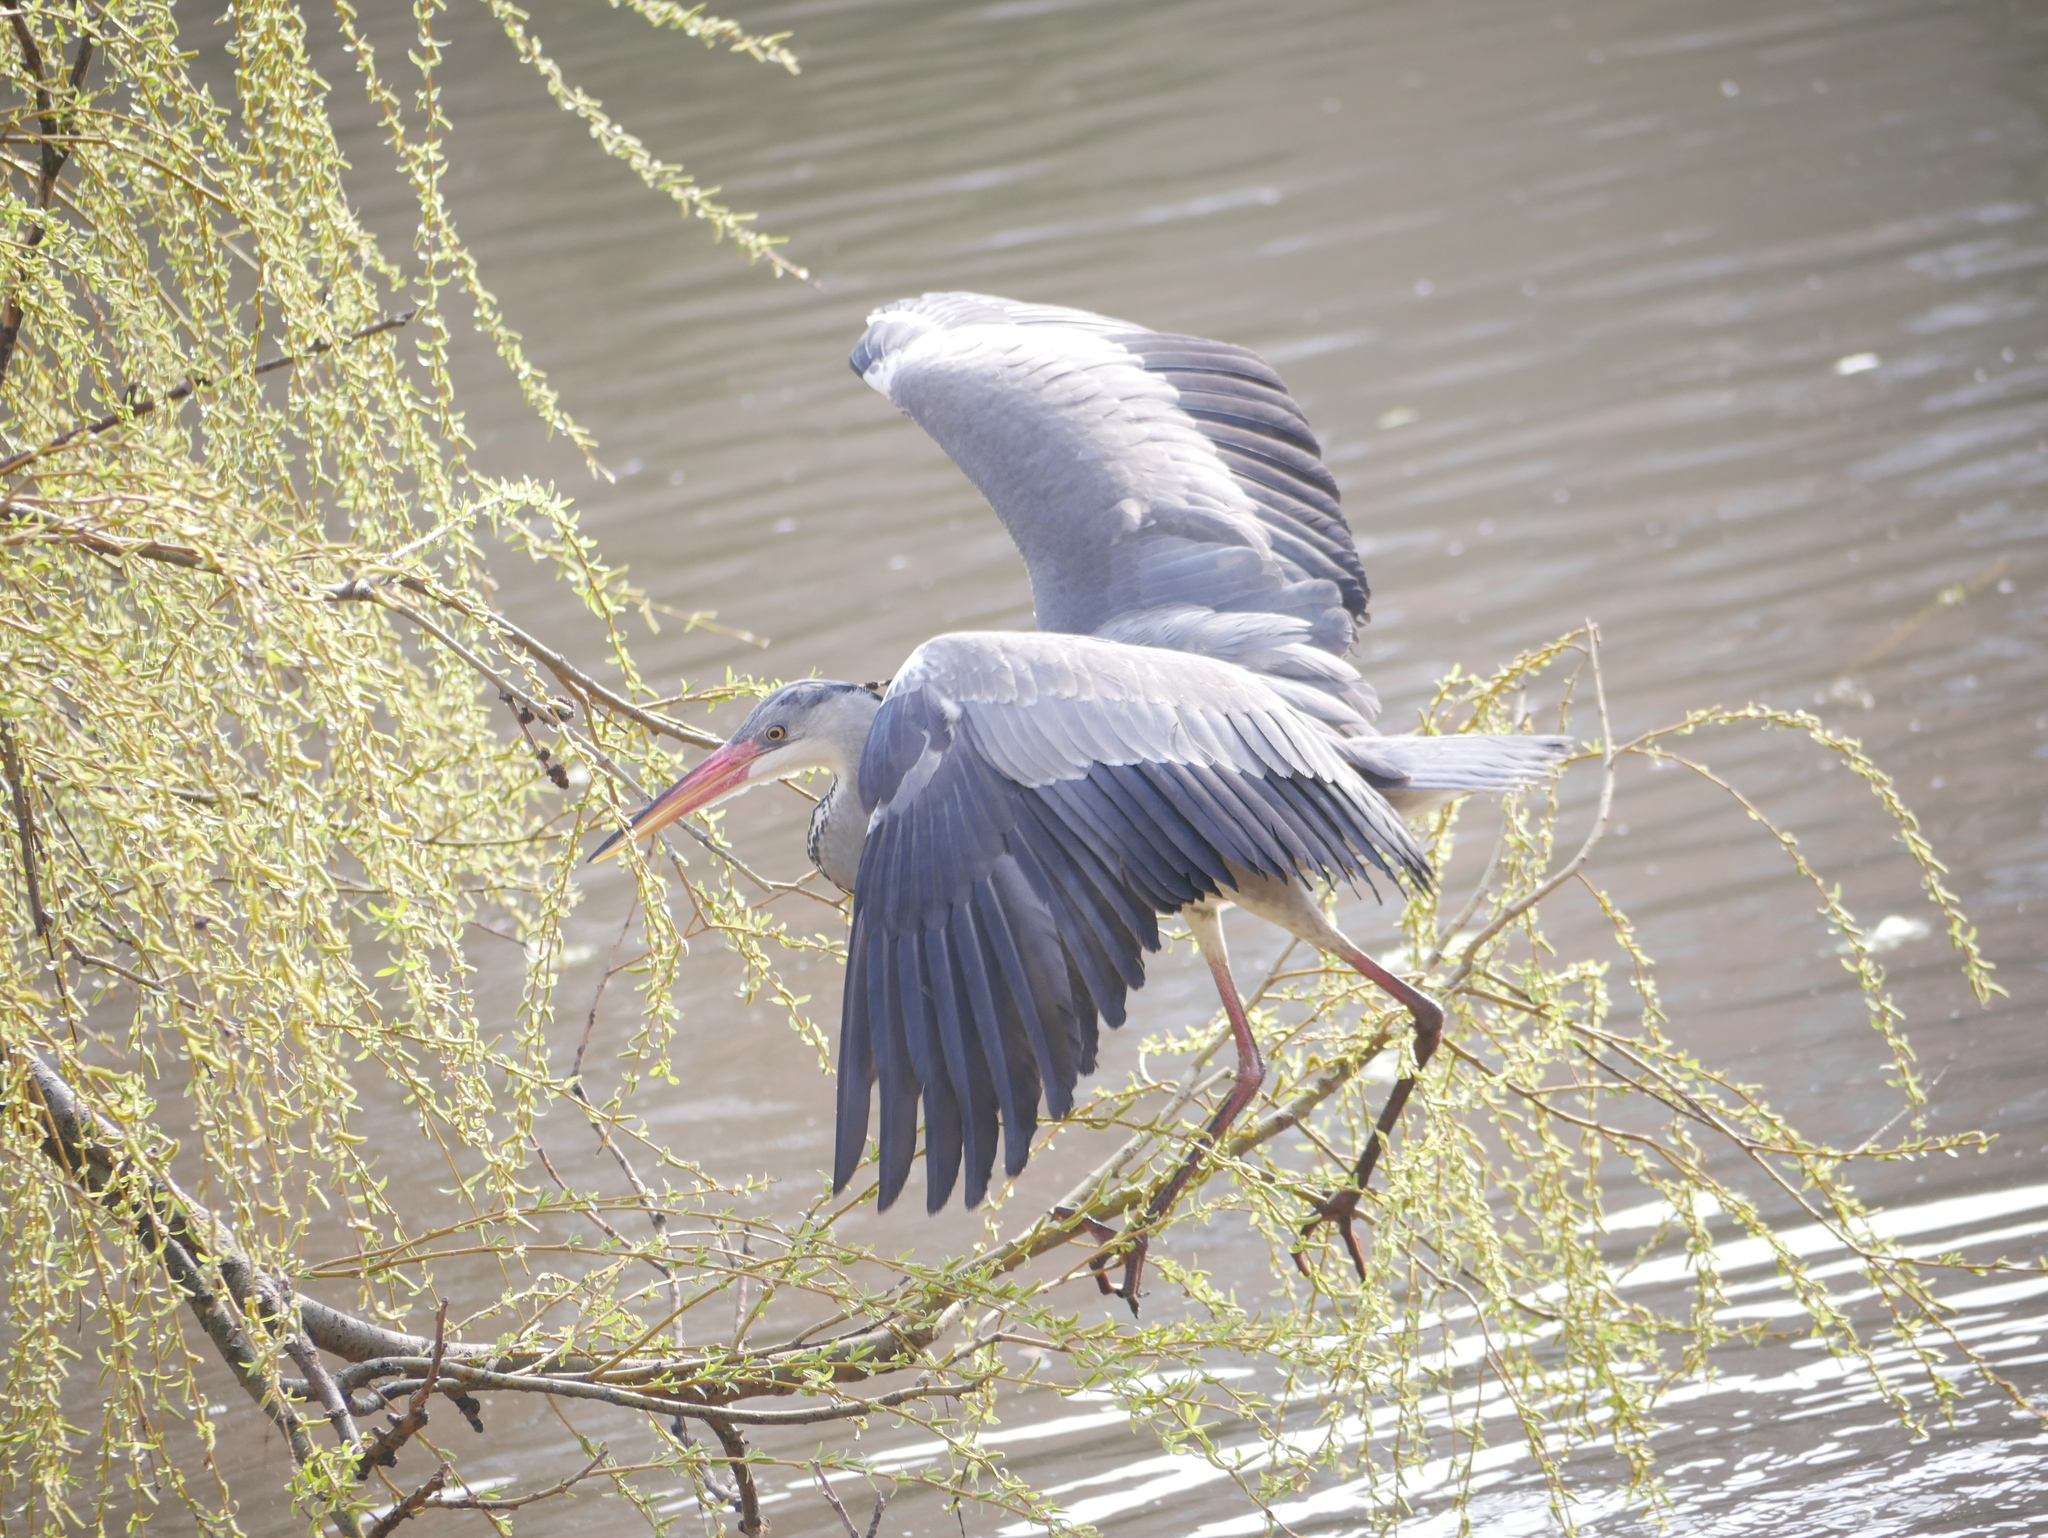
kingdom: Animalia
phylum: Chordata
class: Aves
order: Pelecaniformes
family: Ardeidae
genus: Ardea
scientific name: Ardea cinerea
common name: Grey heron
